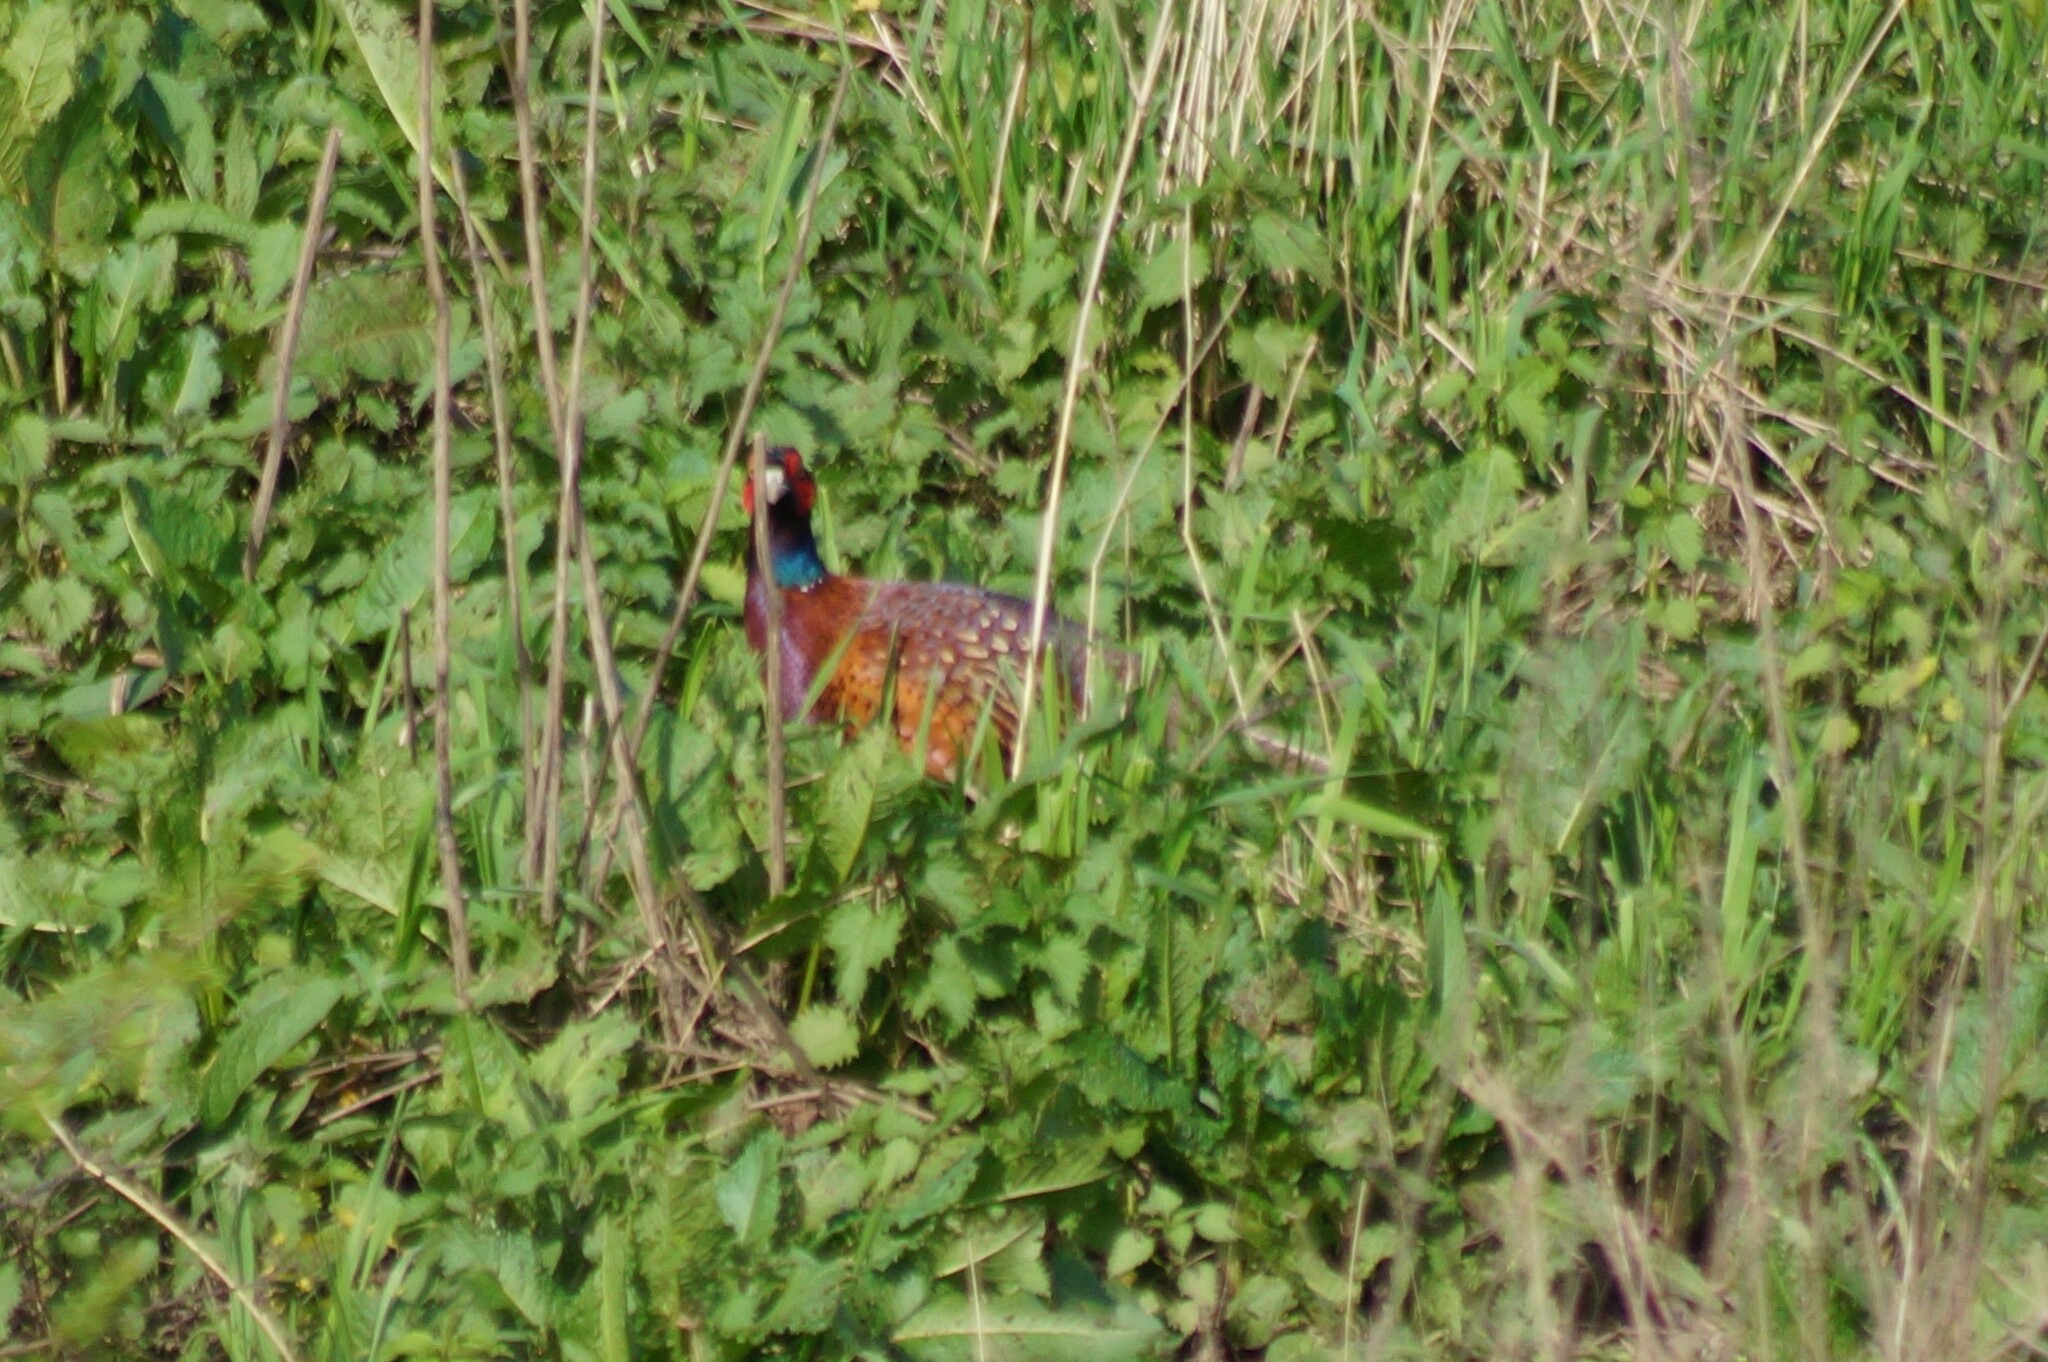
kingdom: Animalia
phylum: Chordata
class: Aves
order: Galliformes
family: Phasianidae
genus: Phasianus
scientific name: Phasianus colchicus
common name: Common pheasant
